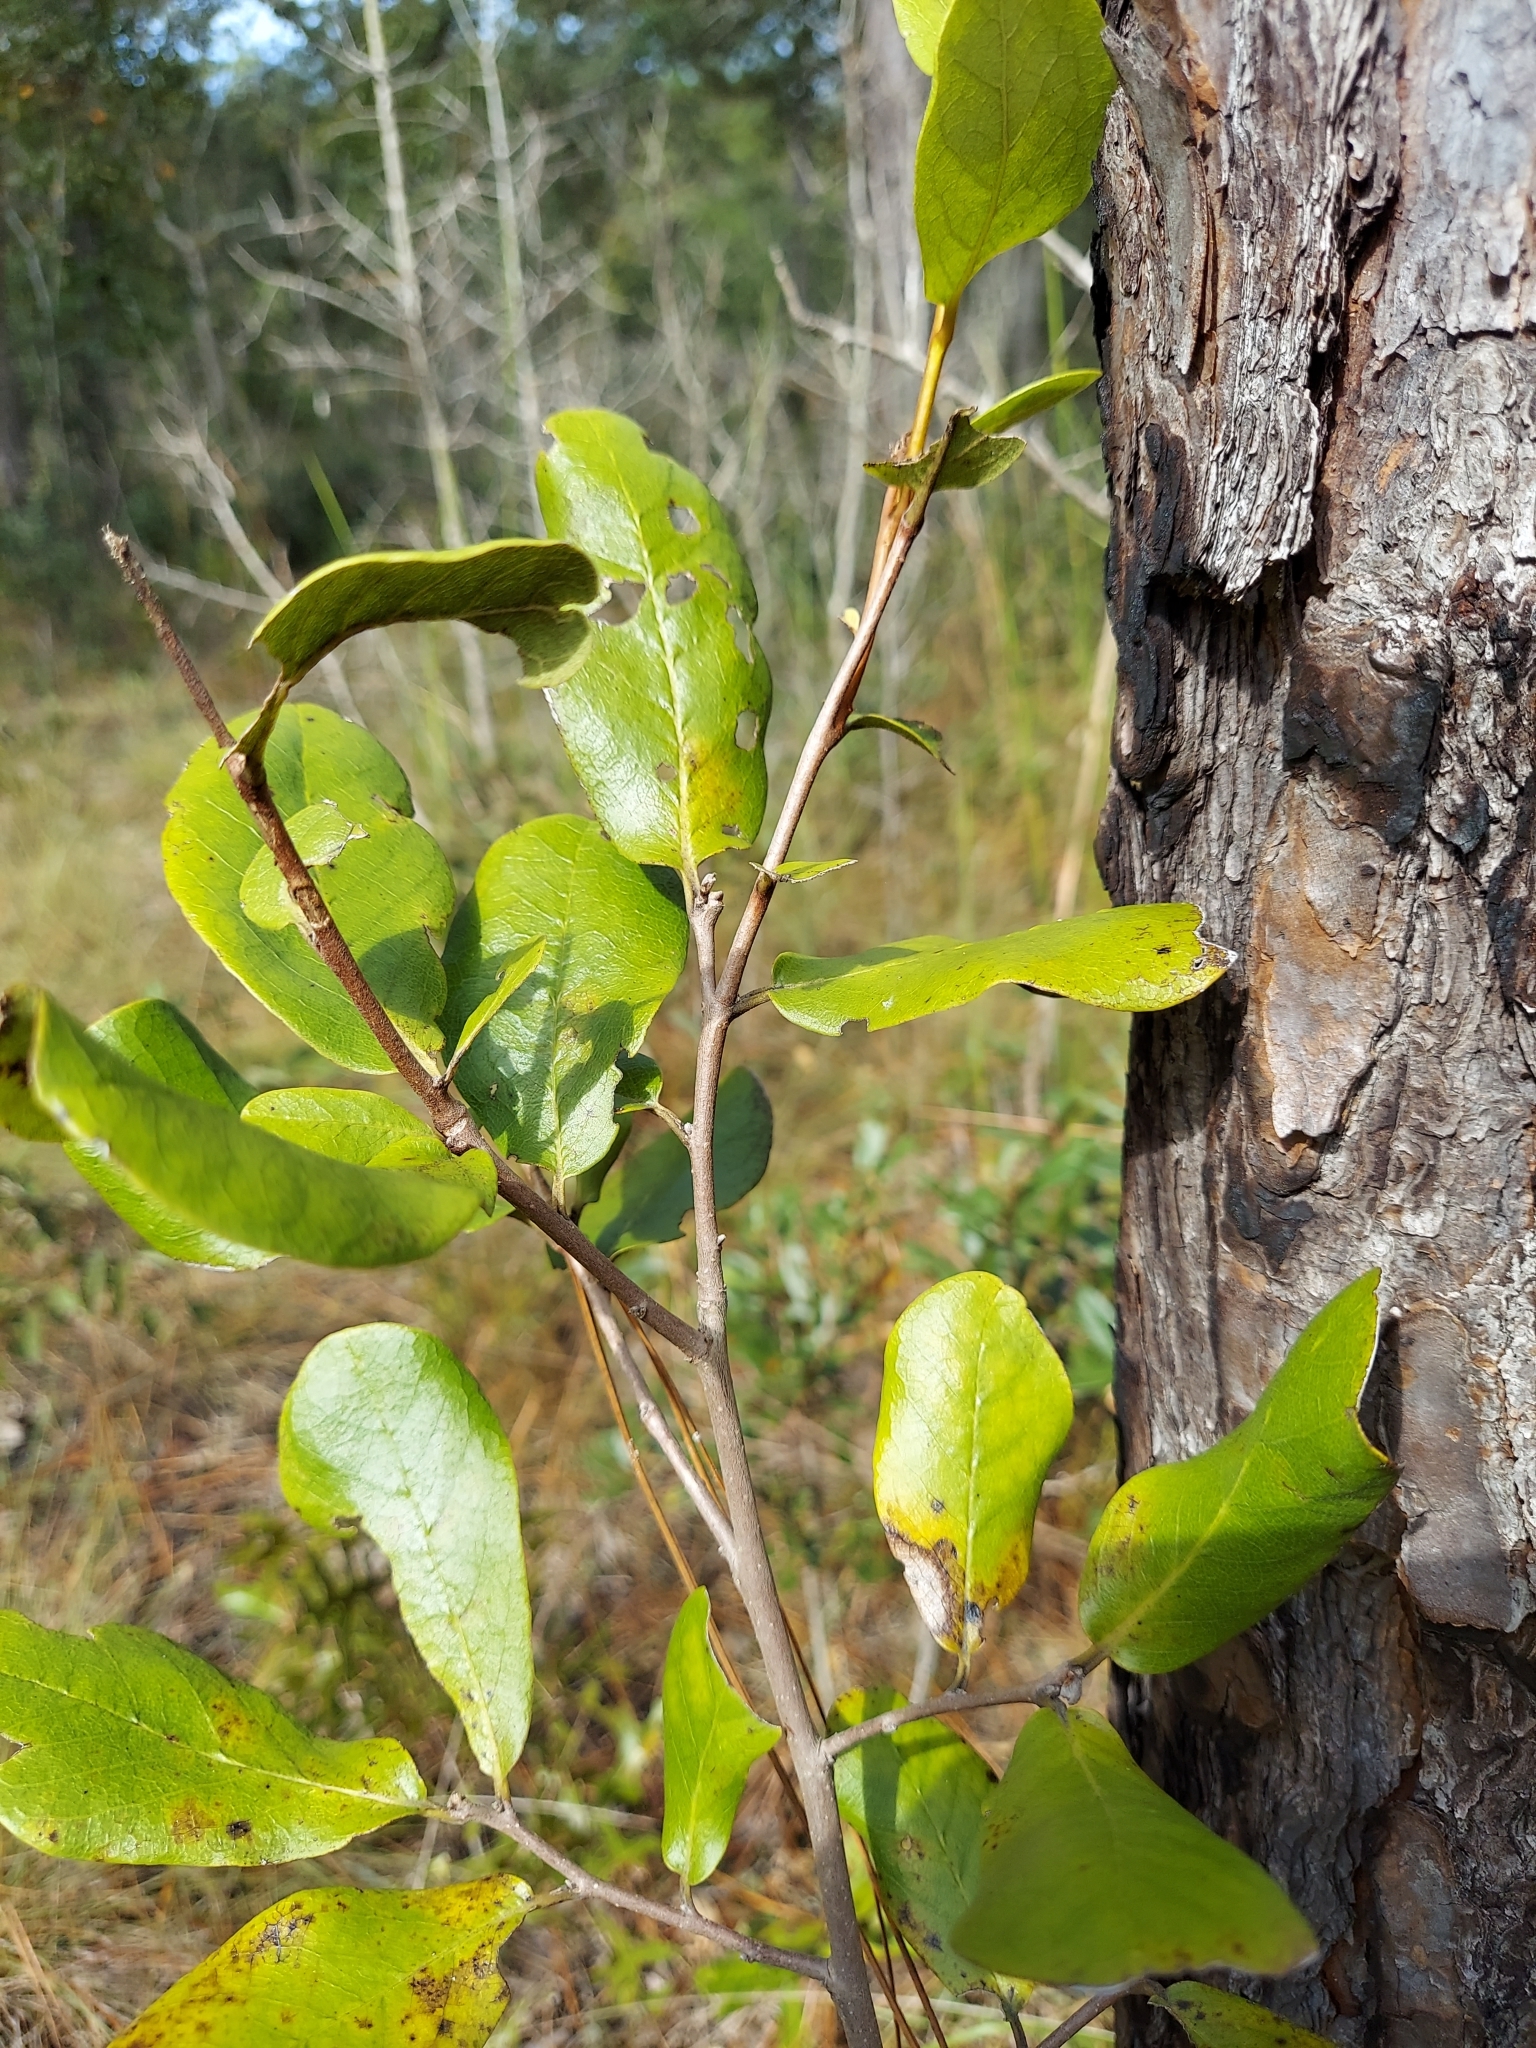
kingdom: Plantae
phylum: Tracheophyta
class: Magnoliopsida
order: Magnoliales
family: Annonaceae
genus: Asimina
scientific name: Asimina obovata
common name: Flag pawpaw
